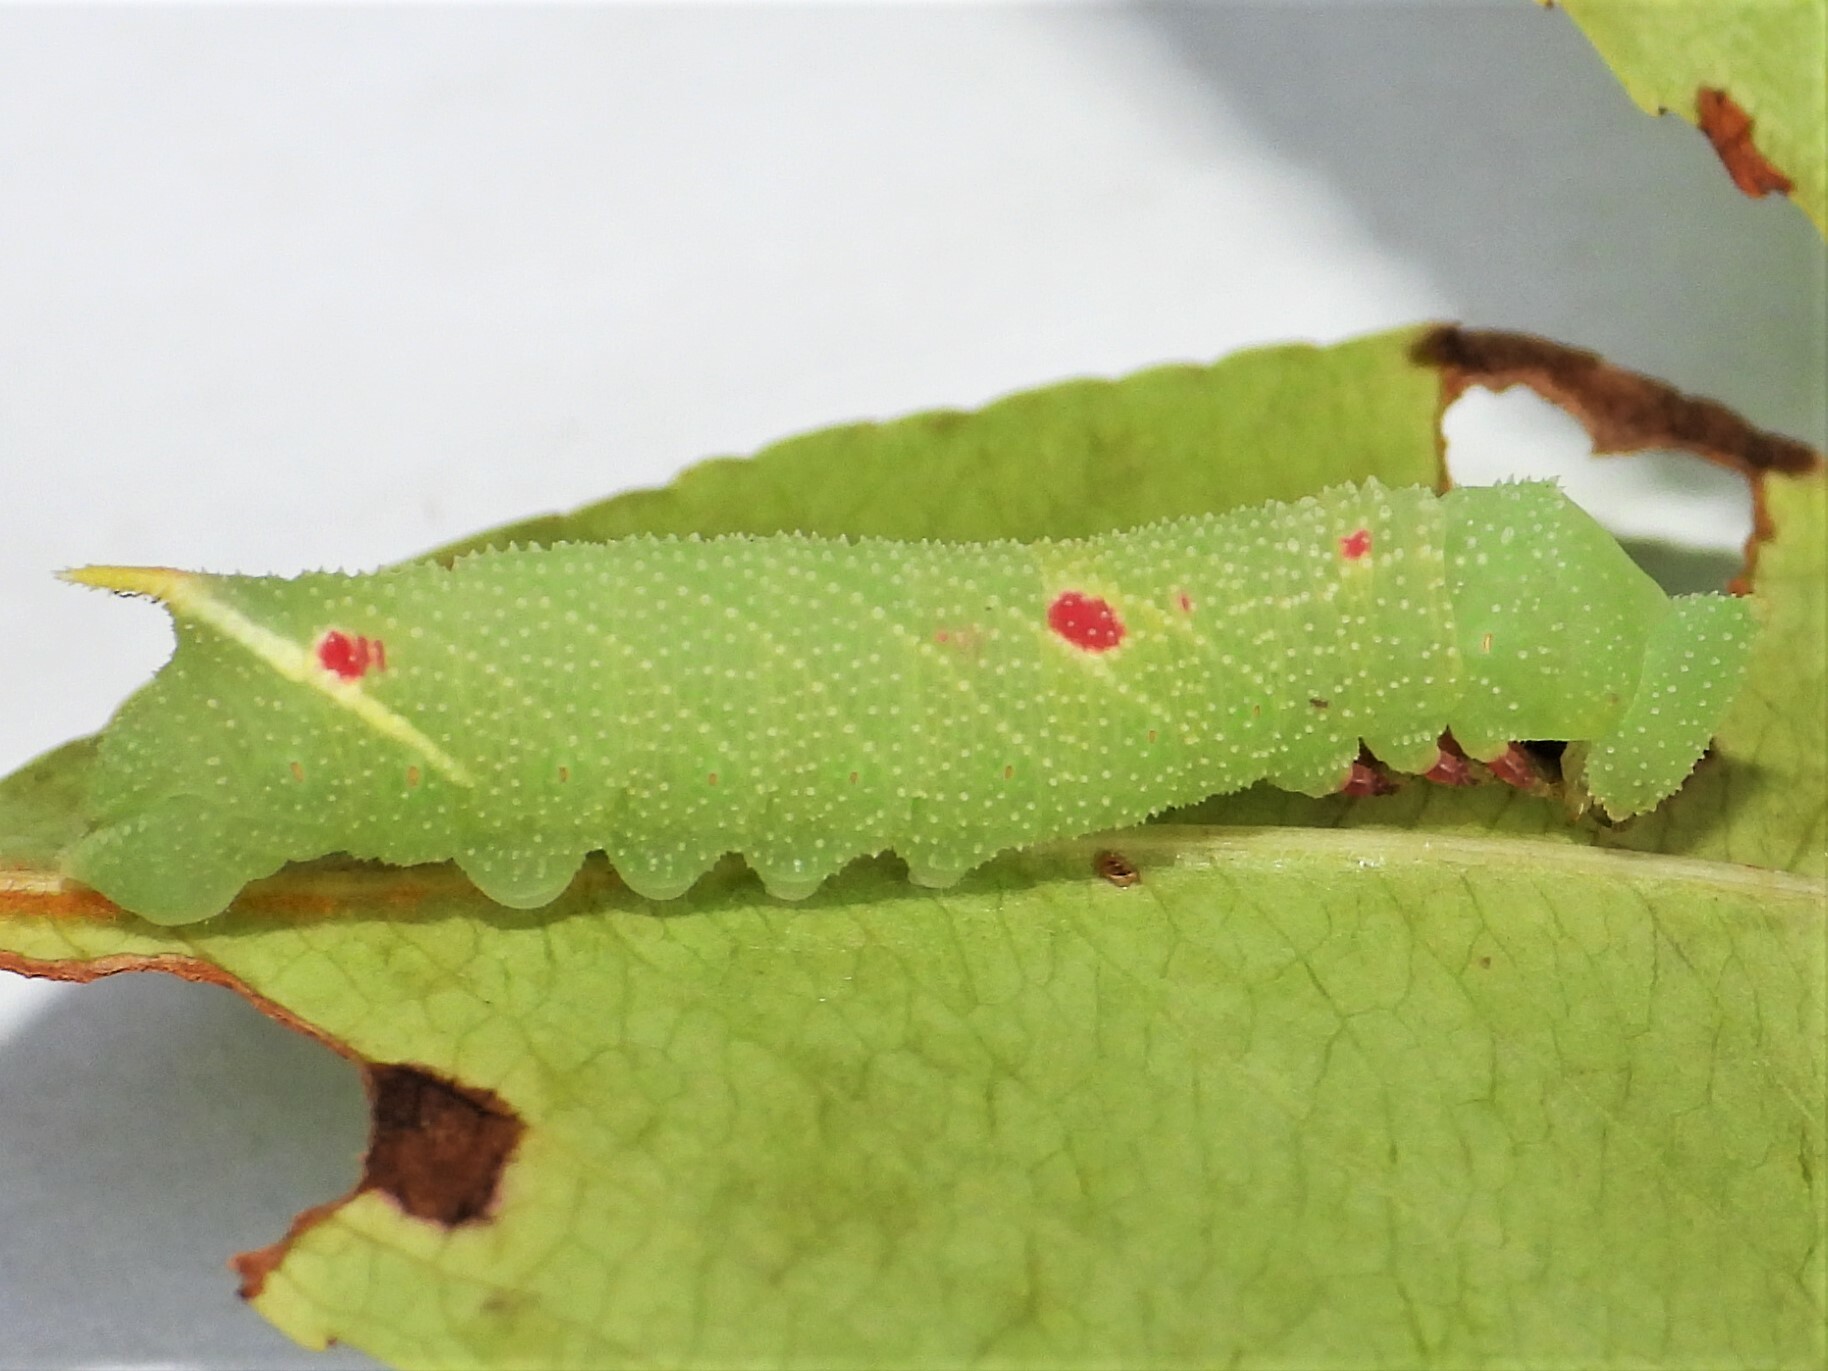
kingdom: Animalia
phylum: Arthropoda
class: Insecta
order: Lepidoptera
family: Sphingidae
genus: Paonias
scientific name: Paonias myops
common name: Small-eyed sphinx
